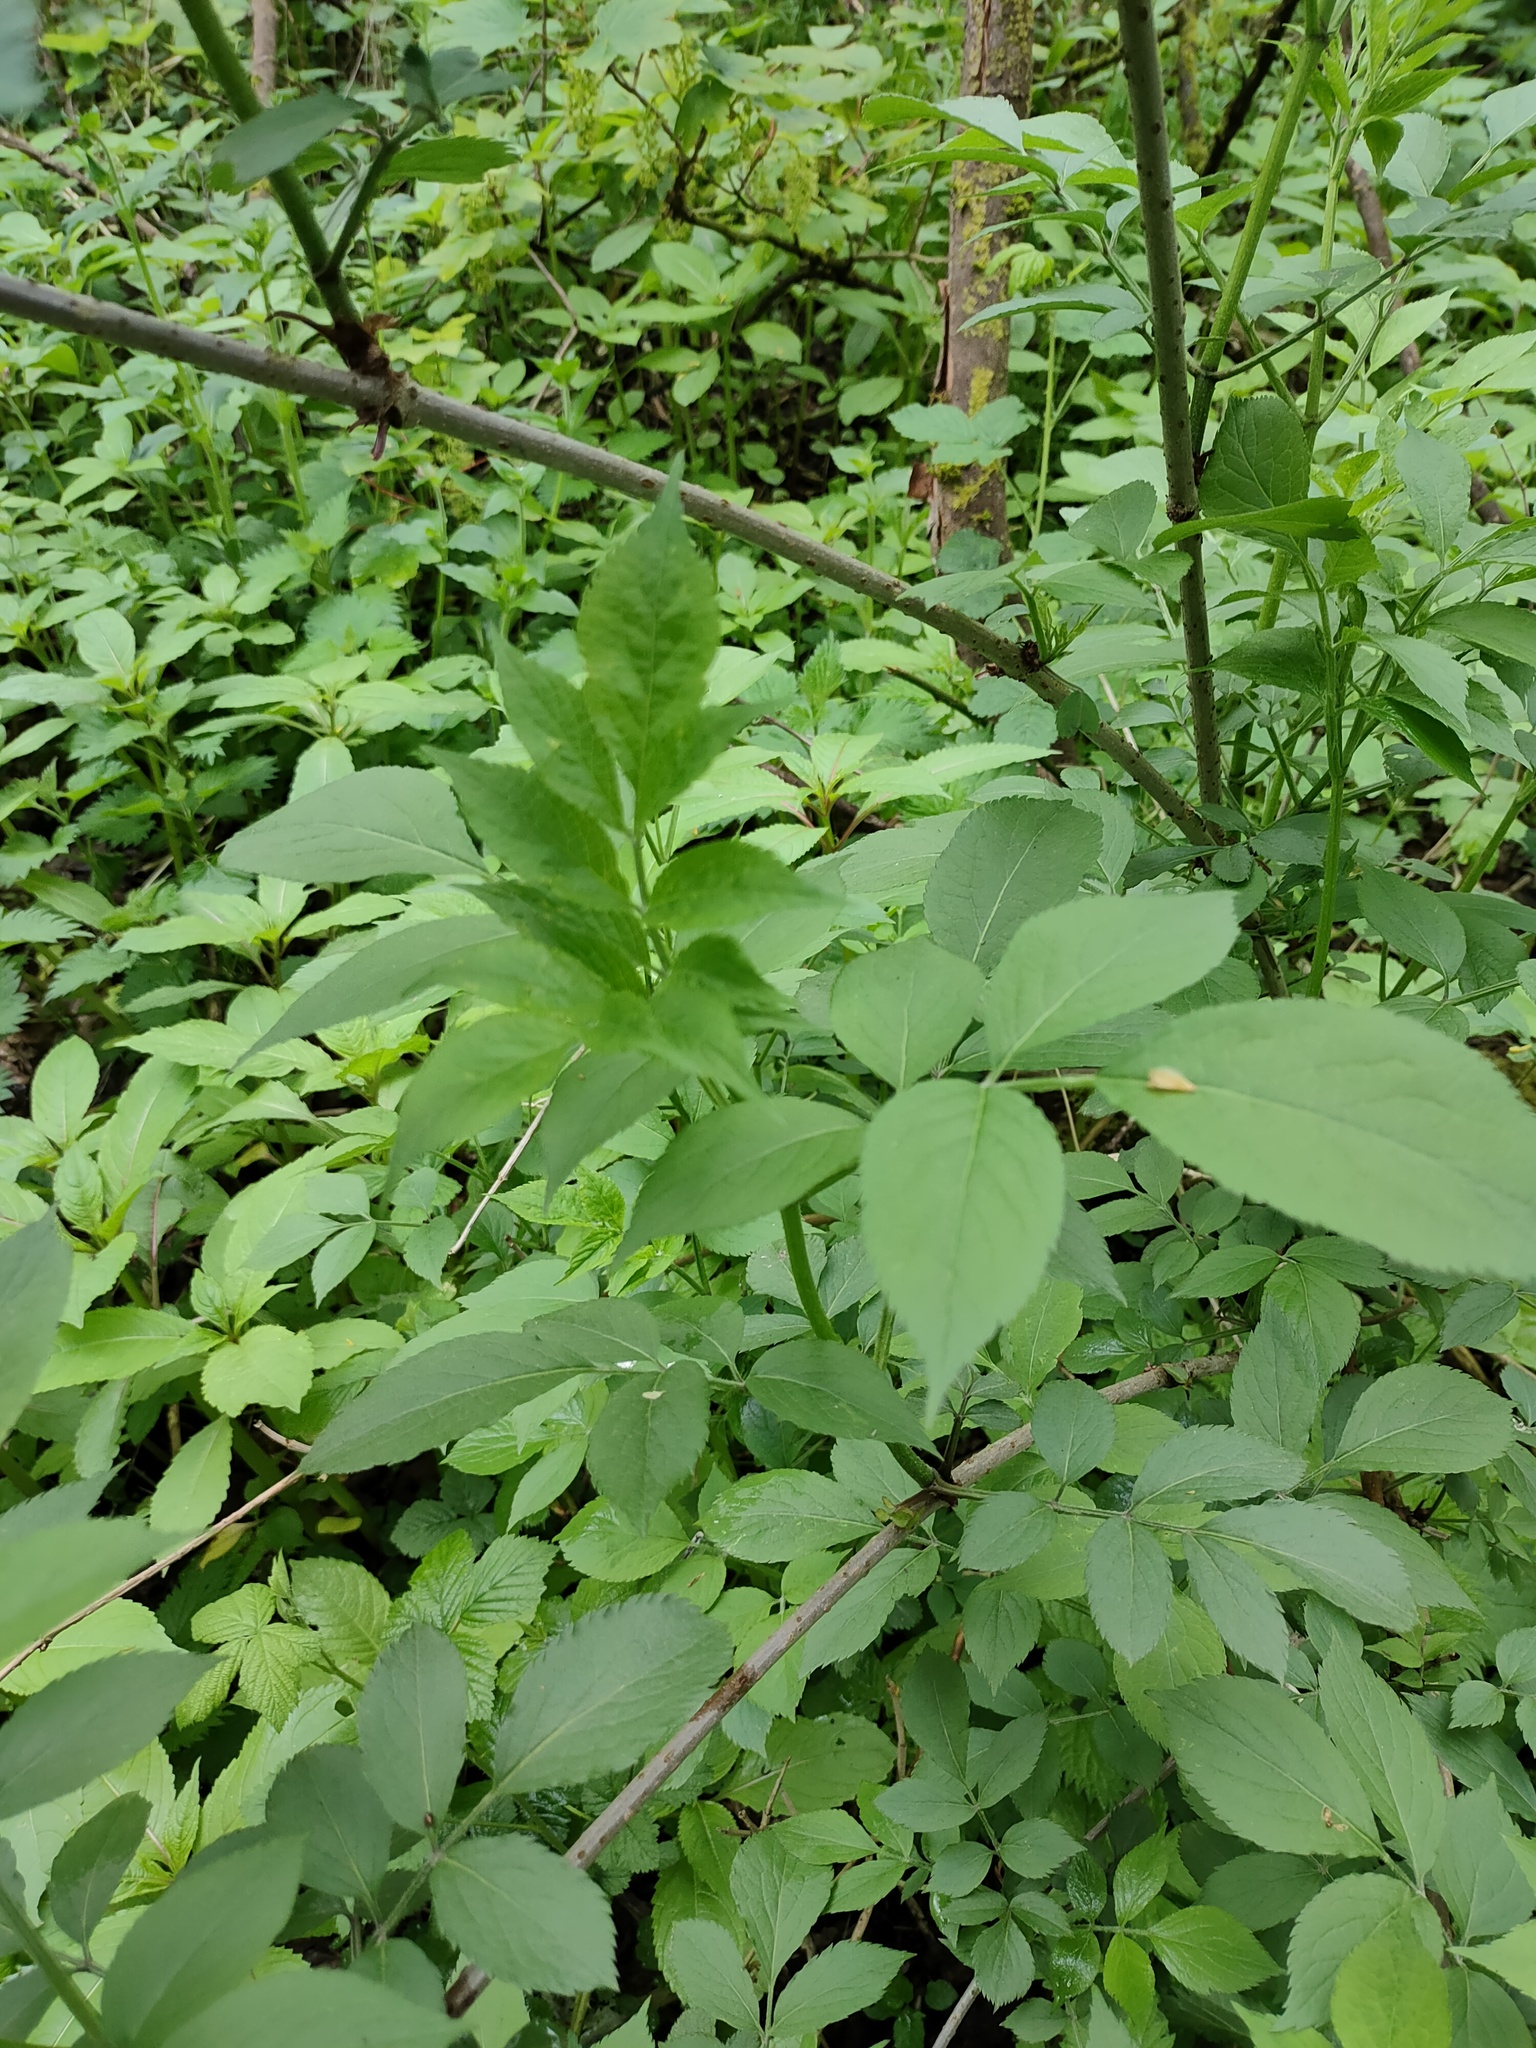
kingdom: Plantae
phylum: Tracheophyta
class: Magnoliopsida
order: Dipsacales
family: Viburnaceae
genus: Sambucus
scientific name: Sambucus nigra
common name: Elder
